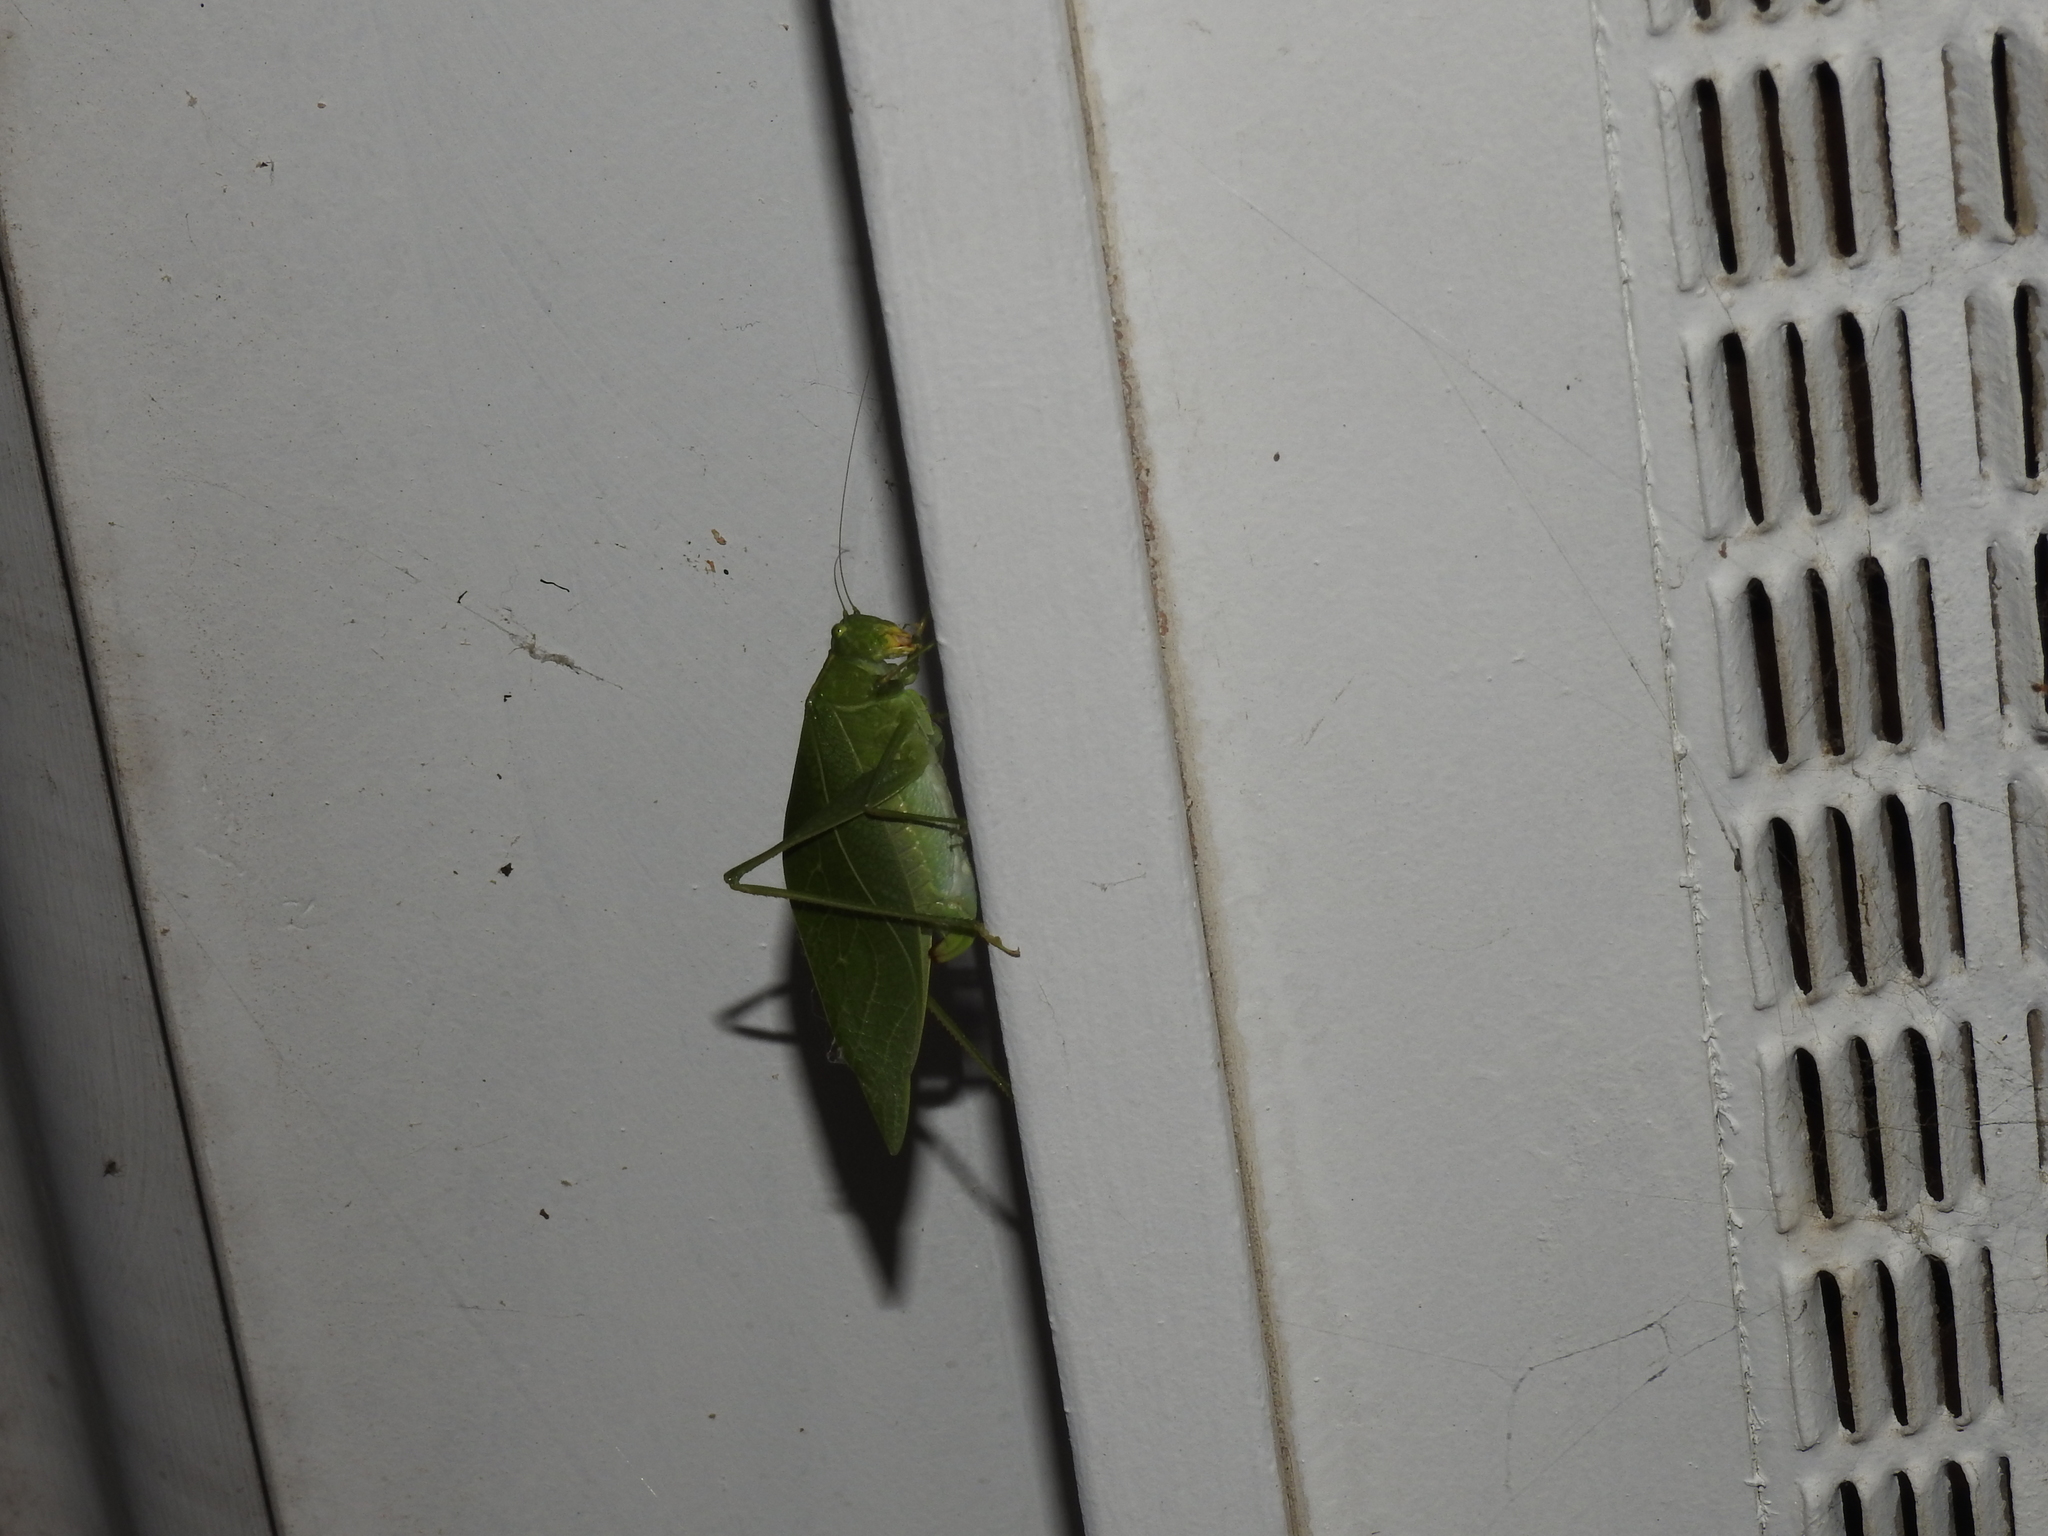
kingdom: Animalia
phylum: Arthropoda
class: Insecta
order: Orthoptera
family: Tettigoniidae
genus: Microcentrum
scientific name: Microcentrum retinerve
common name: Angular-winged katydid
